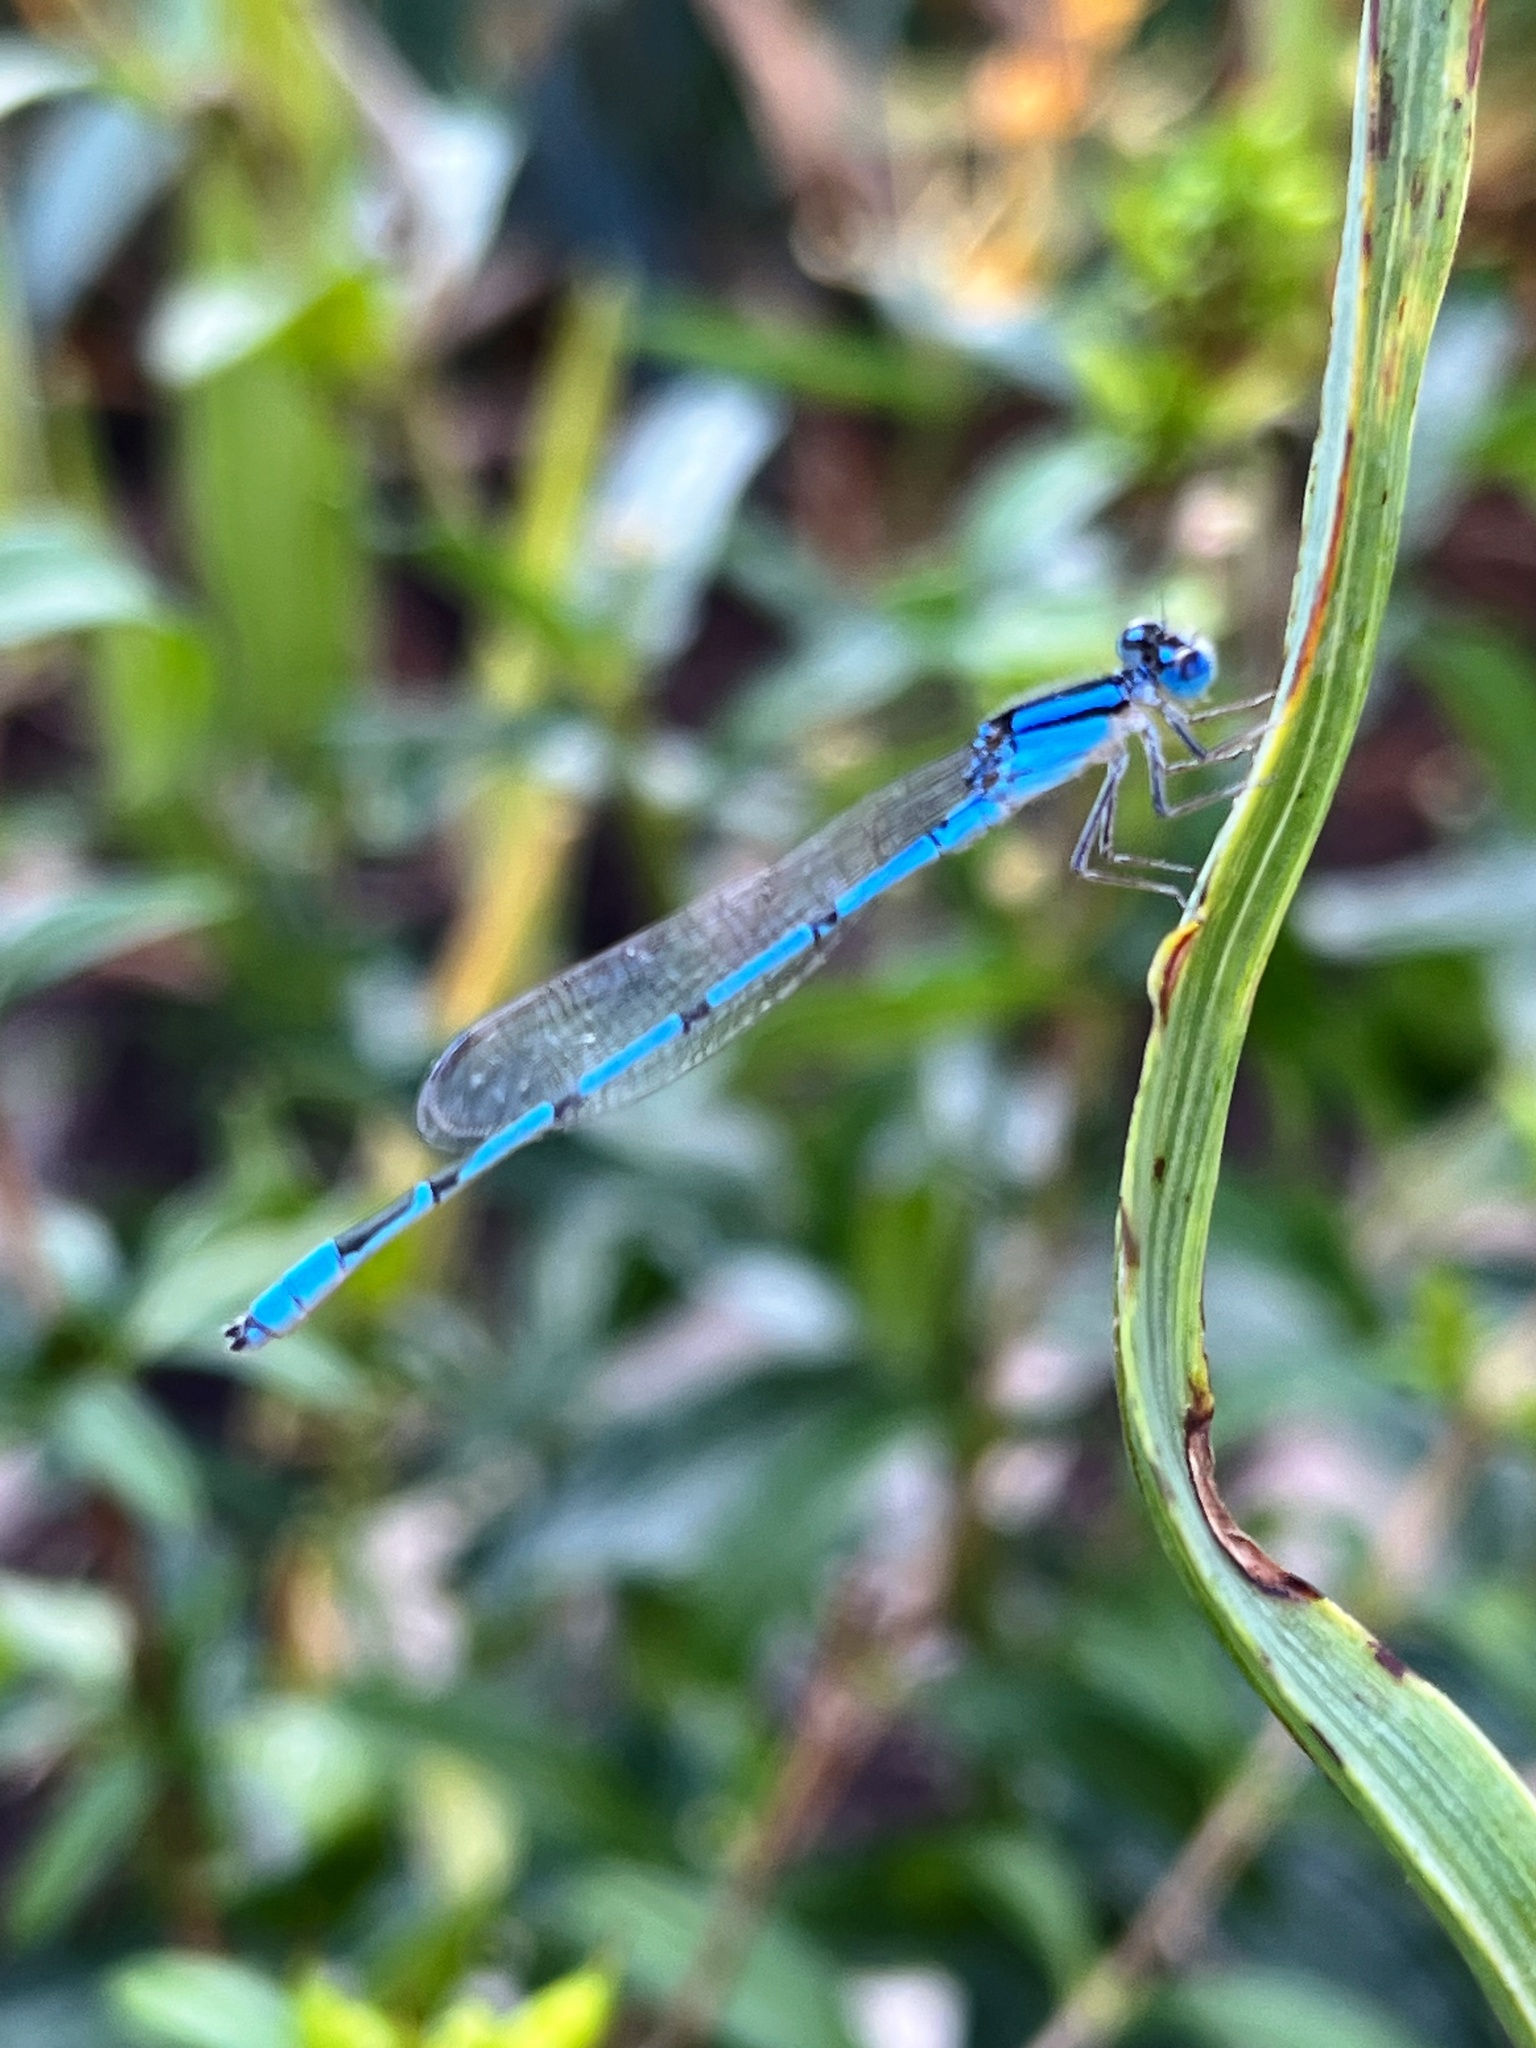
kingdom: Animalia
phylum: Arthropoda
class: Insecta
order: Odonata
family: Coenagrionidae
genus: Enallagma
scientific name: Enallagma civile
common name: Damselfly
